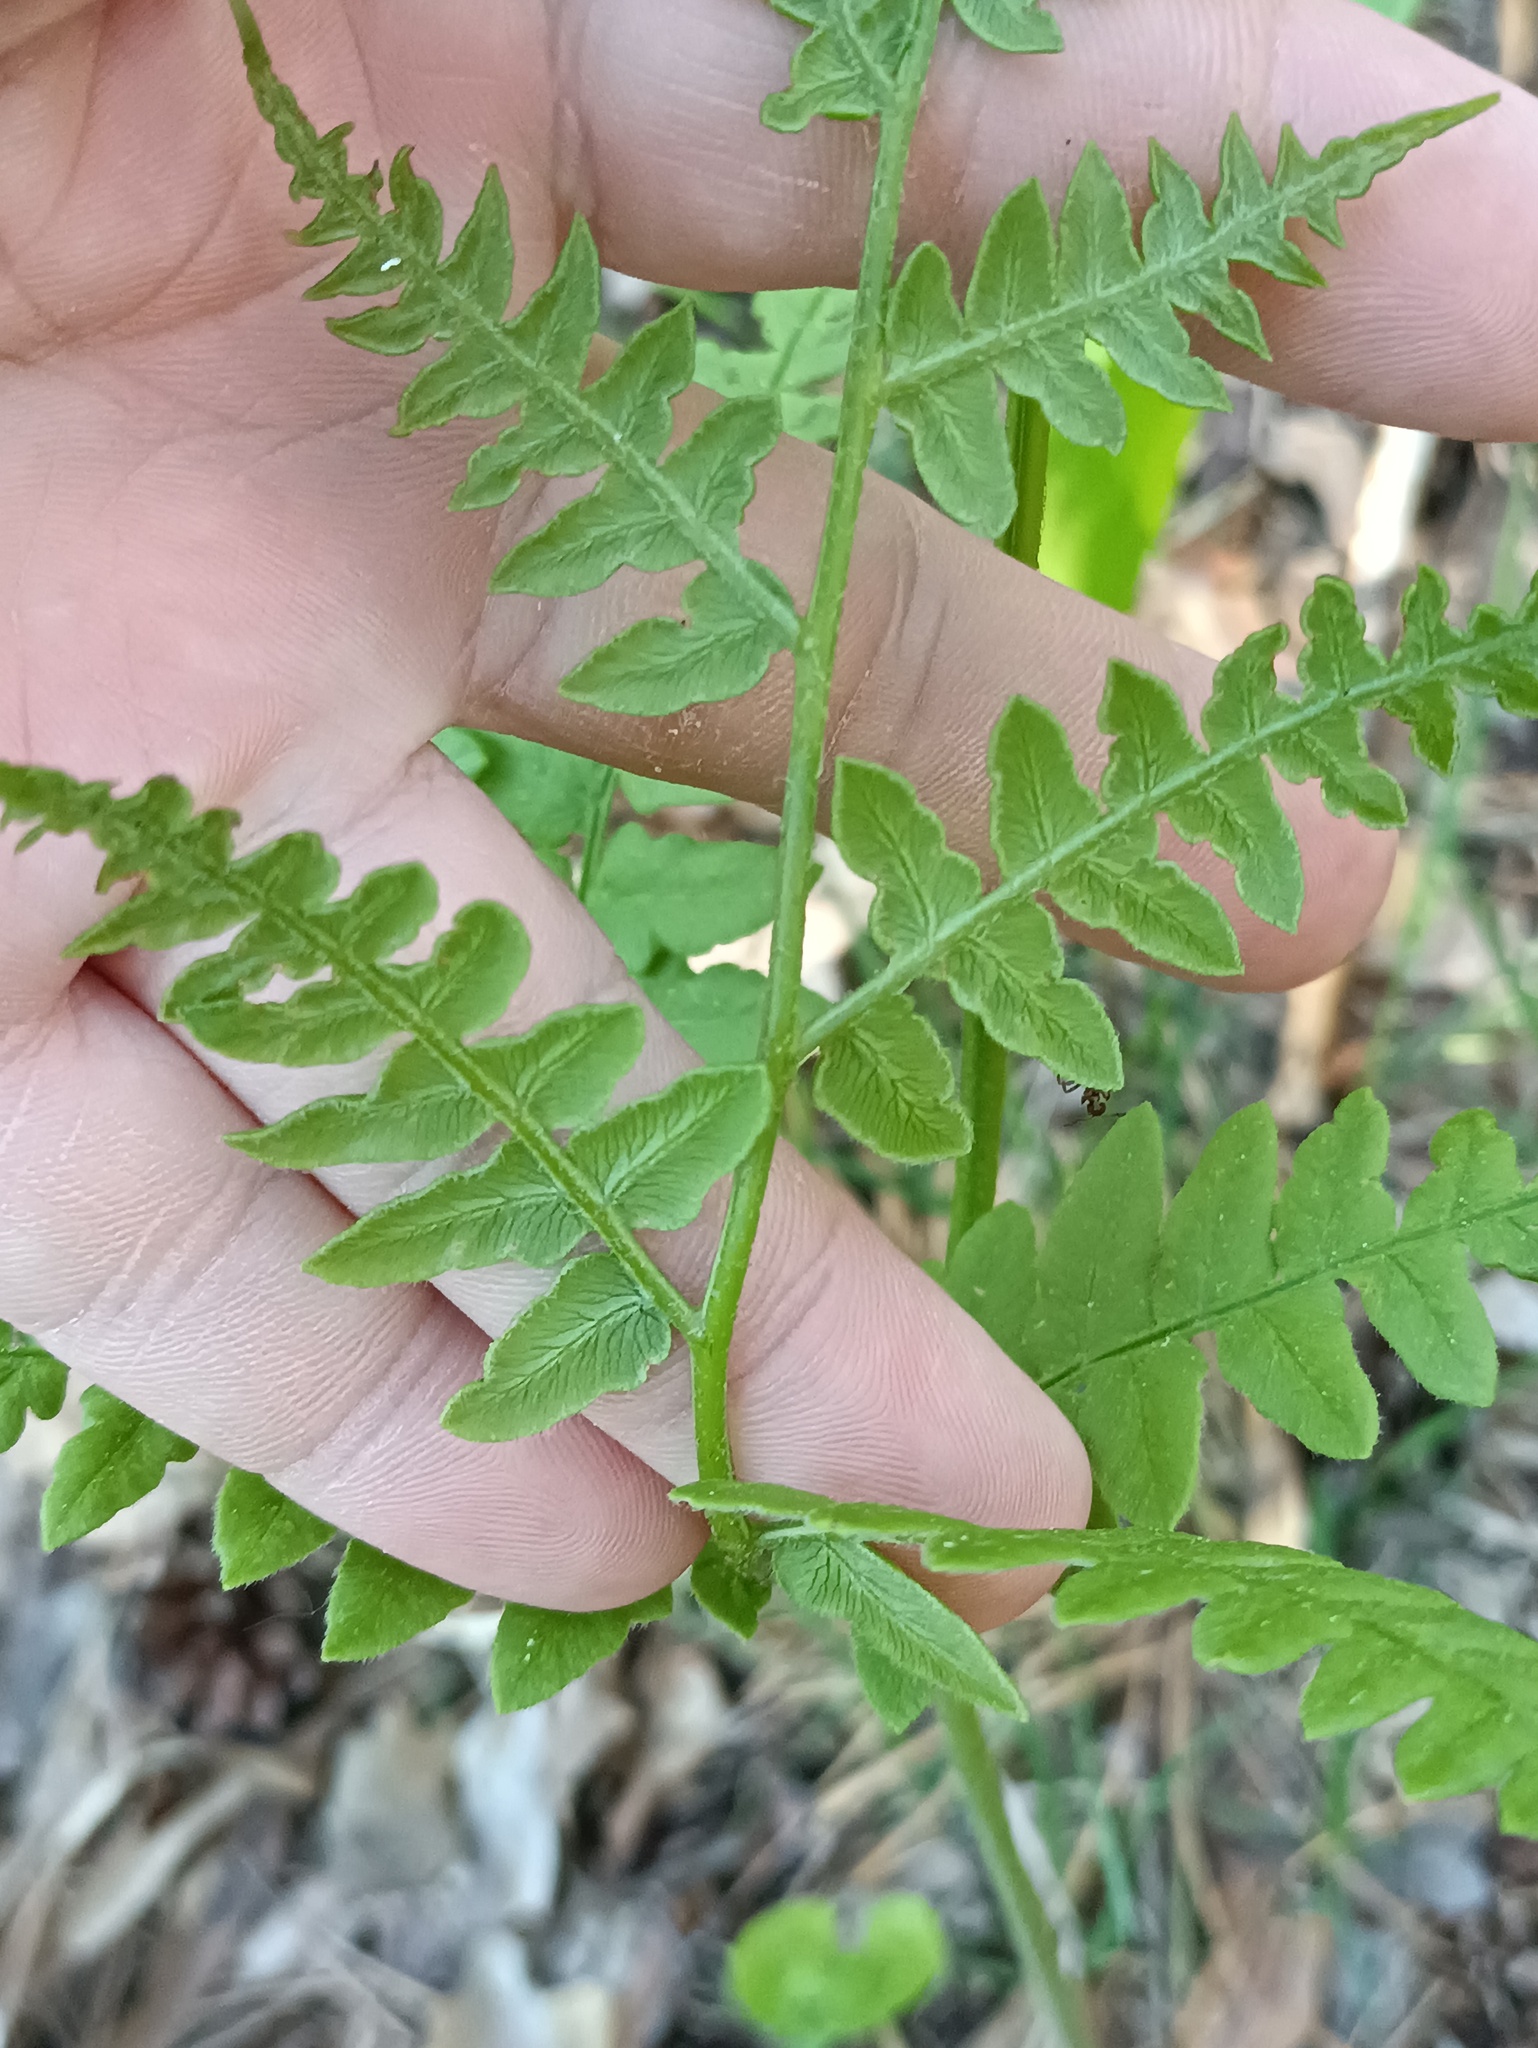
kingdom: Plantae
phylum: Tracheophyta
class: Polypodiopsida
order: Polypodiales
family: Dennstaedtiaceae
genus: Pteridium
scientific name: Pteridium aquilinum
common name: Bracken
